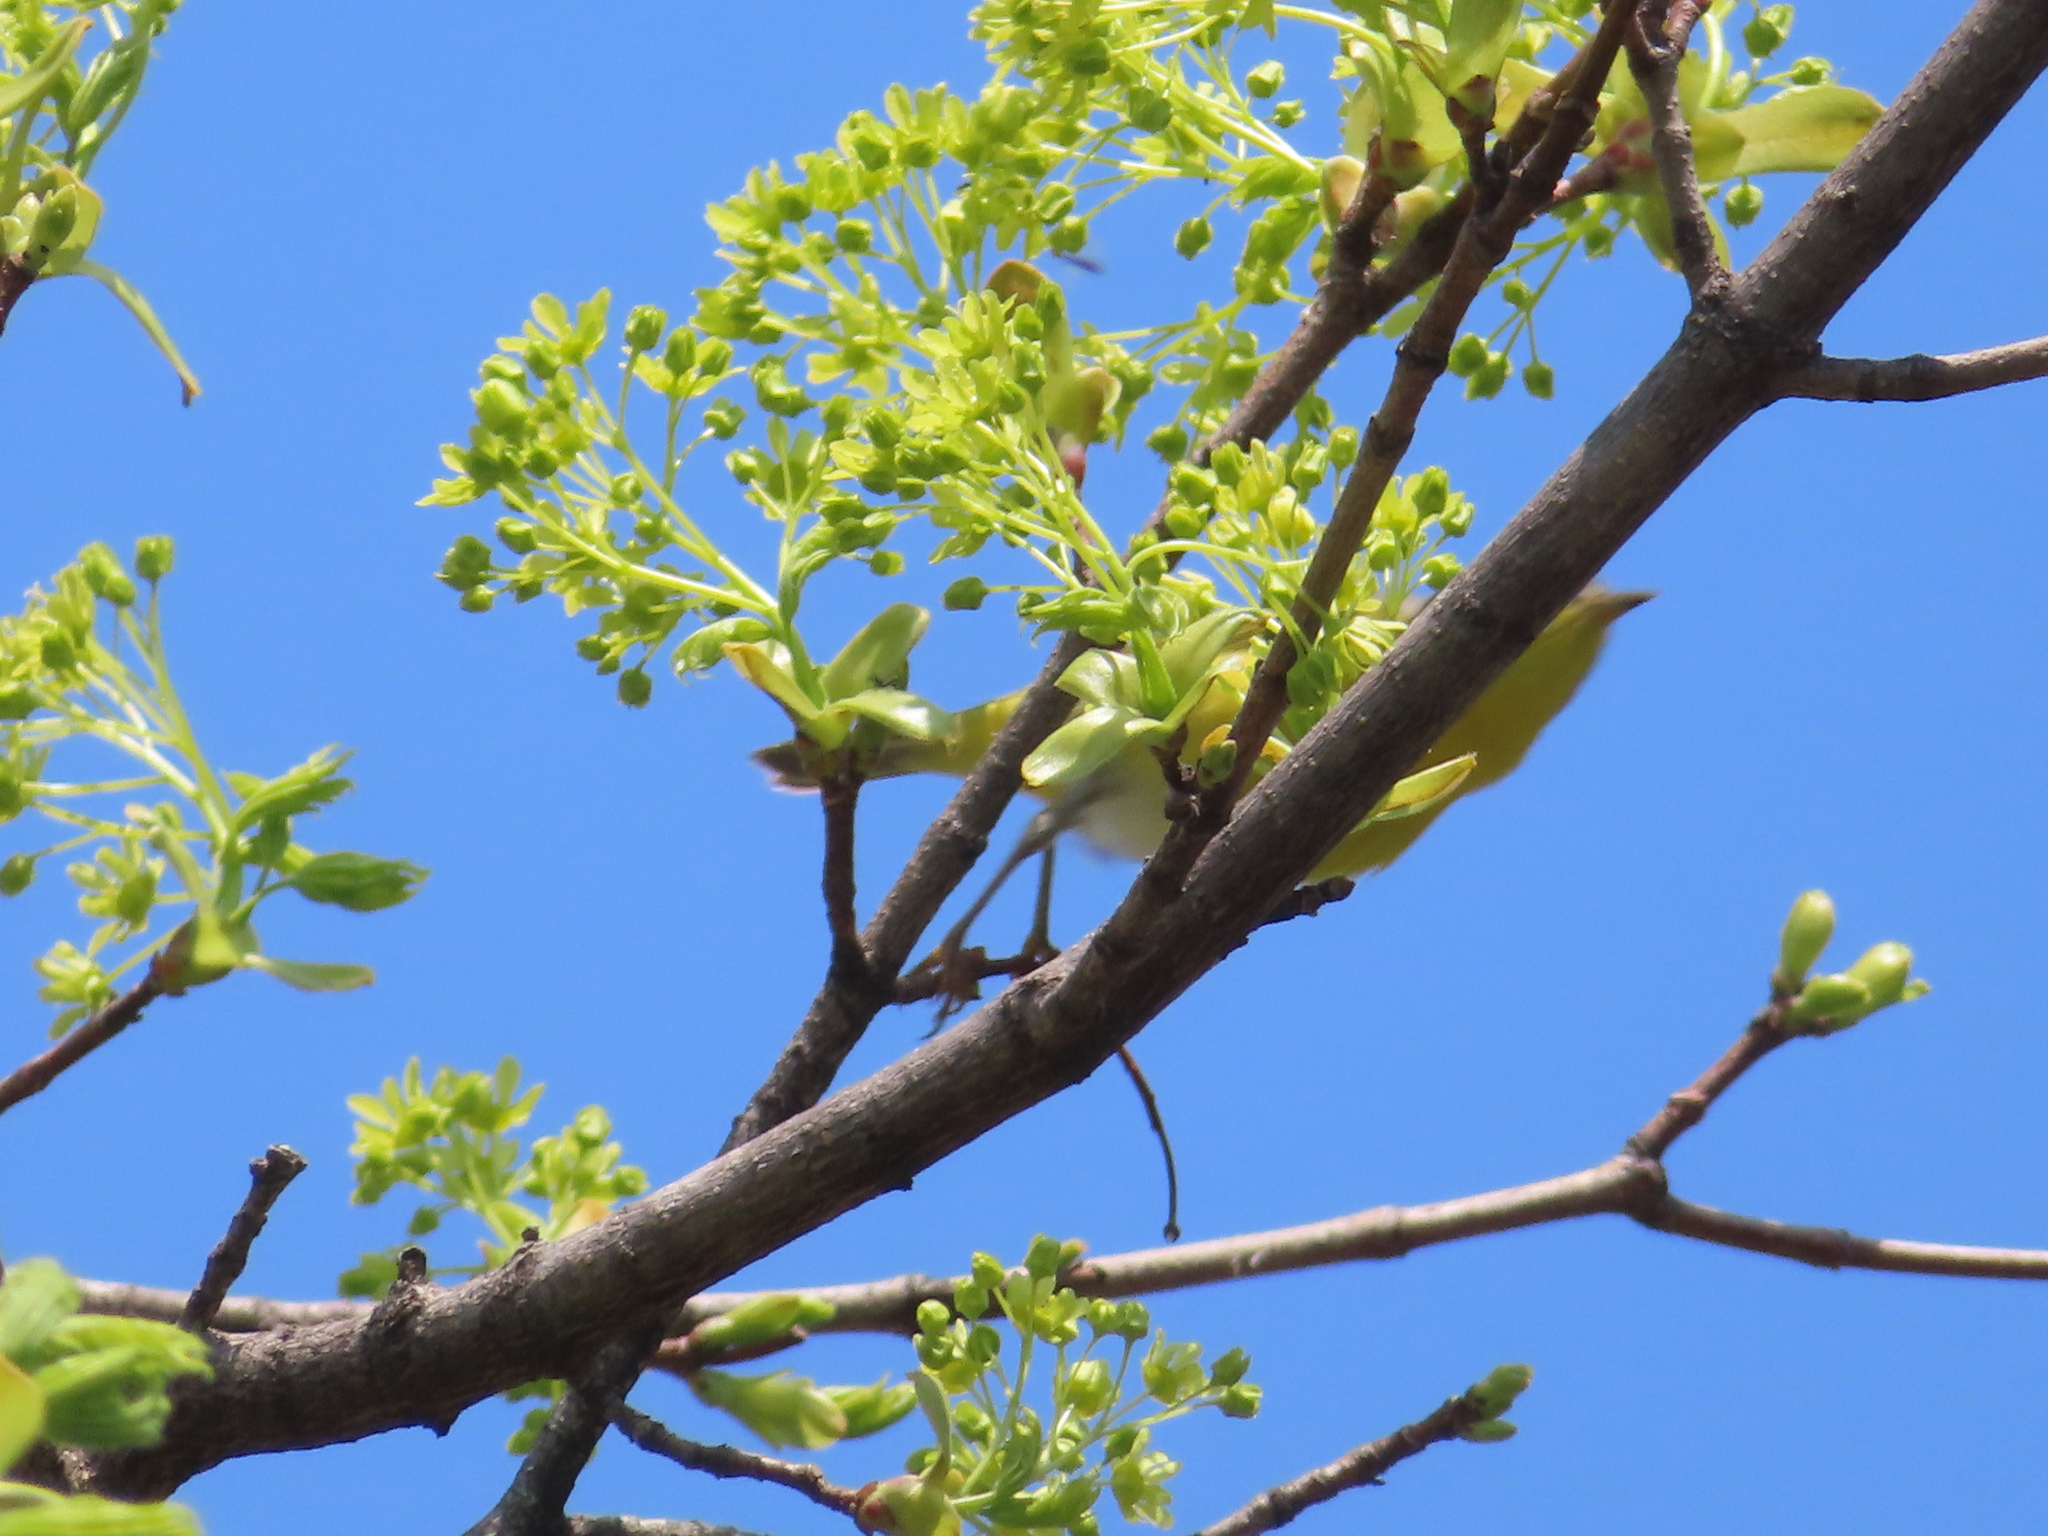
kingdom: Animalia
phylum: Chordata
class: Aves
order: Passeriformes
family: Parulidae
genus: Leiothlypis
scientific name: Leiothlypis ruficapilla
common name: Nashville warbler
